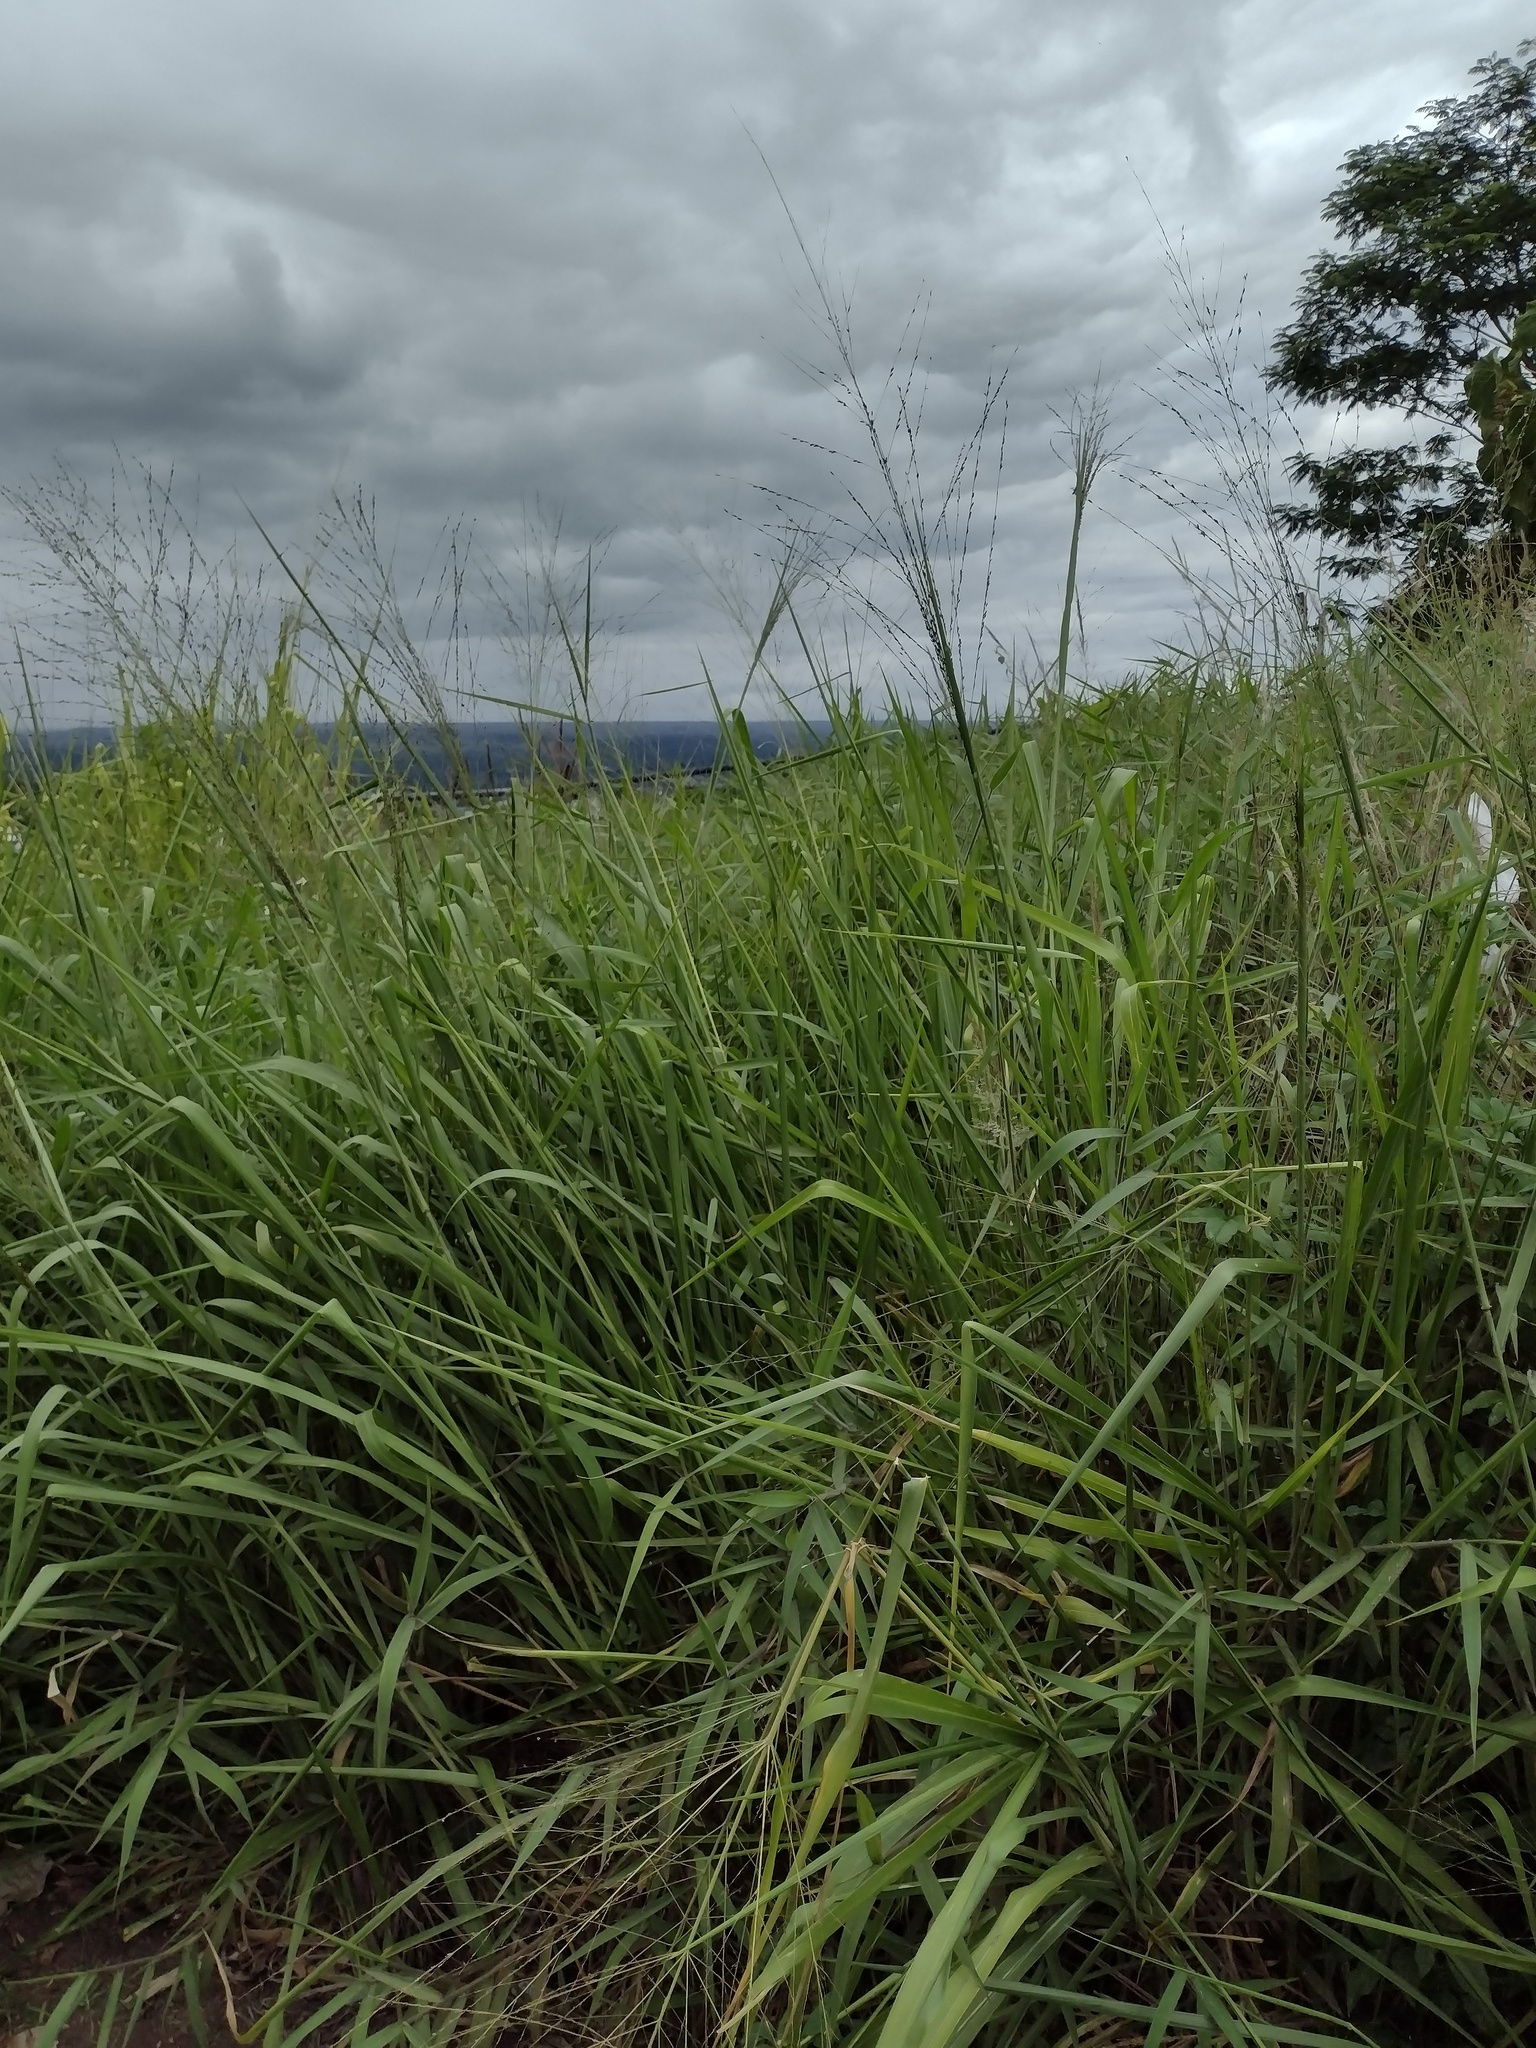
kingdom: Plantae
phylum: Tracheophyta
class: Liliopsida
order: Poales
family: Poaceae
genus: Megathyrsus
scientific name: Megathyrsus maximus
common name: Guineagrass
